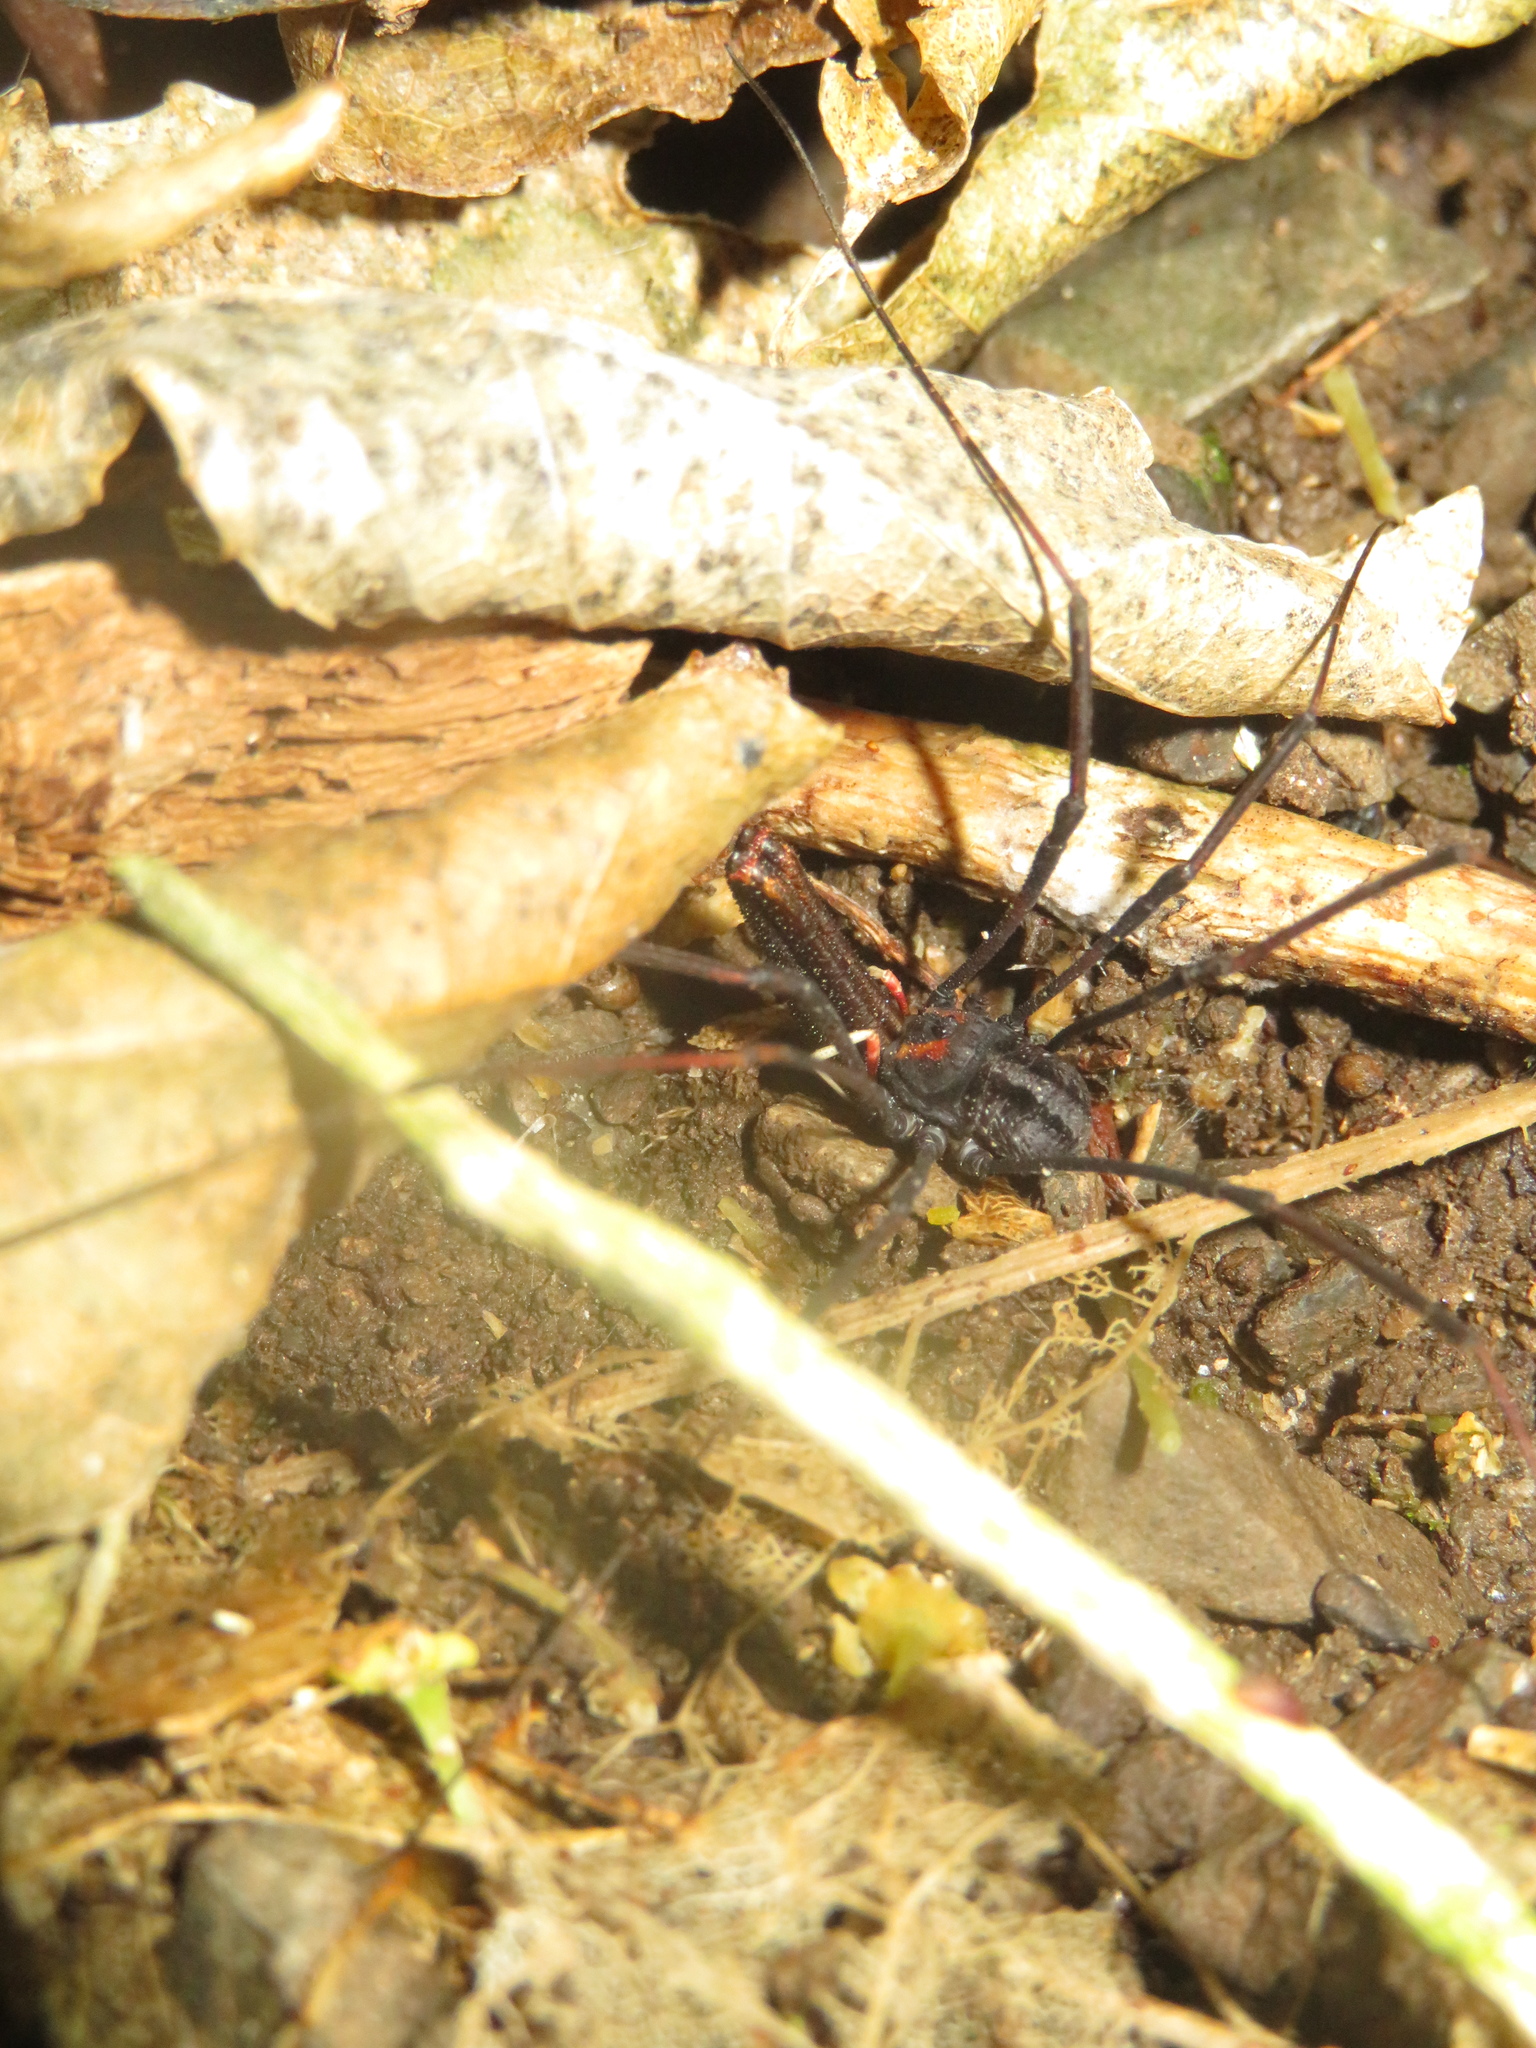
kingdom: Animalia
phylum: Arthropoda
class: Arachnida
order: Opiliones
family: Neopilionidae
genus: Forsteropsalis
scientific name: Forsteropsalis inconstans
